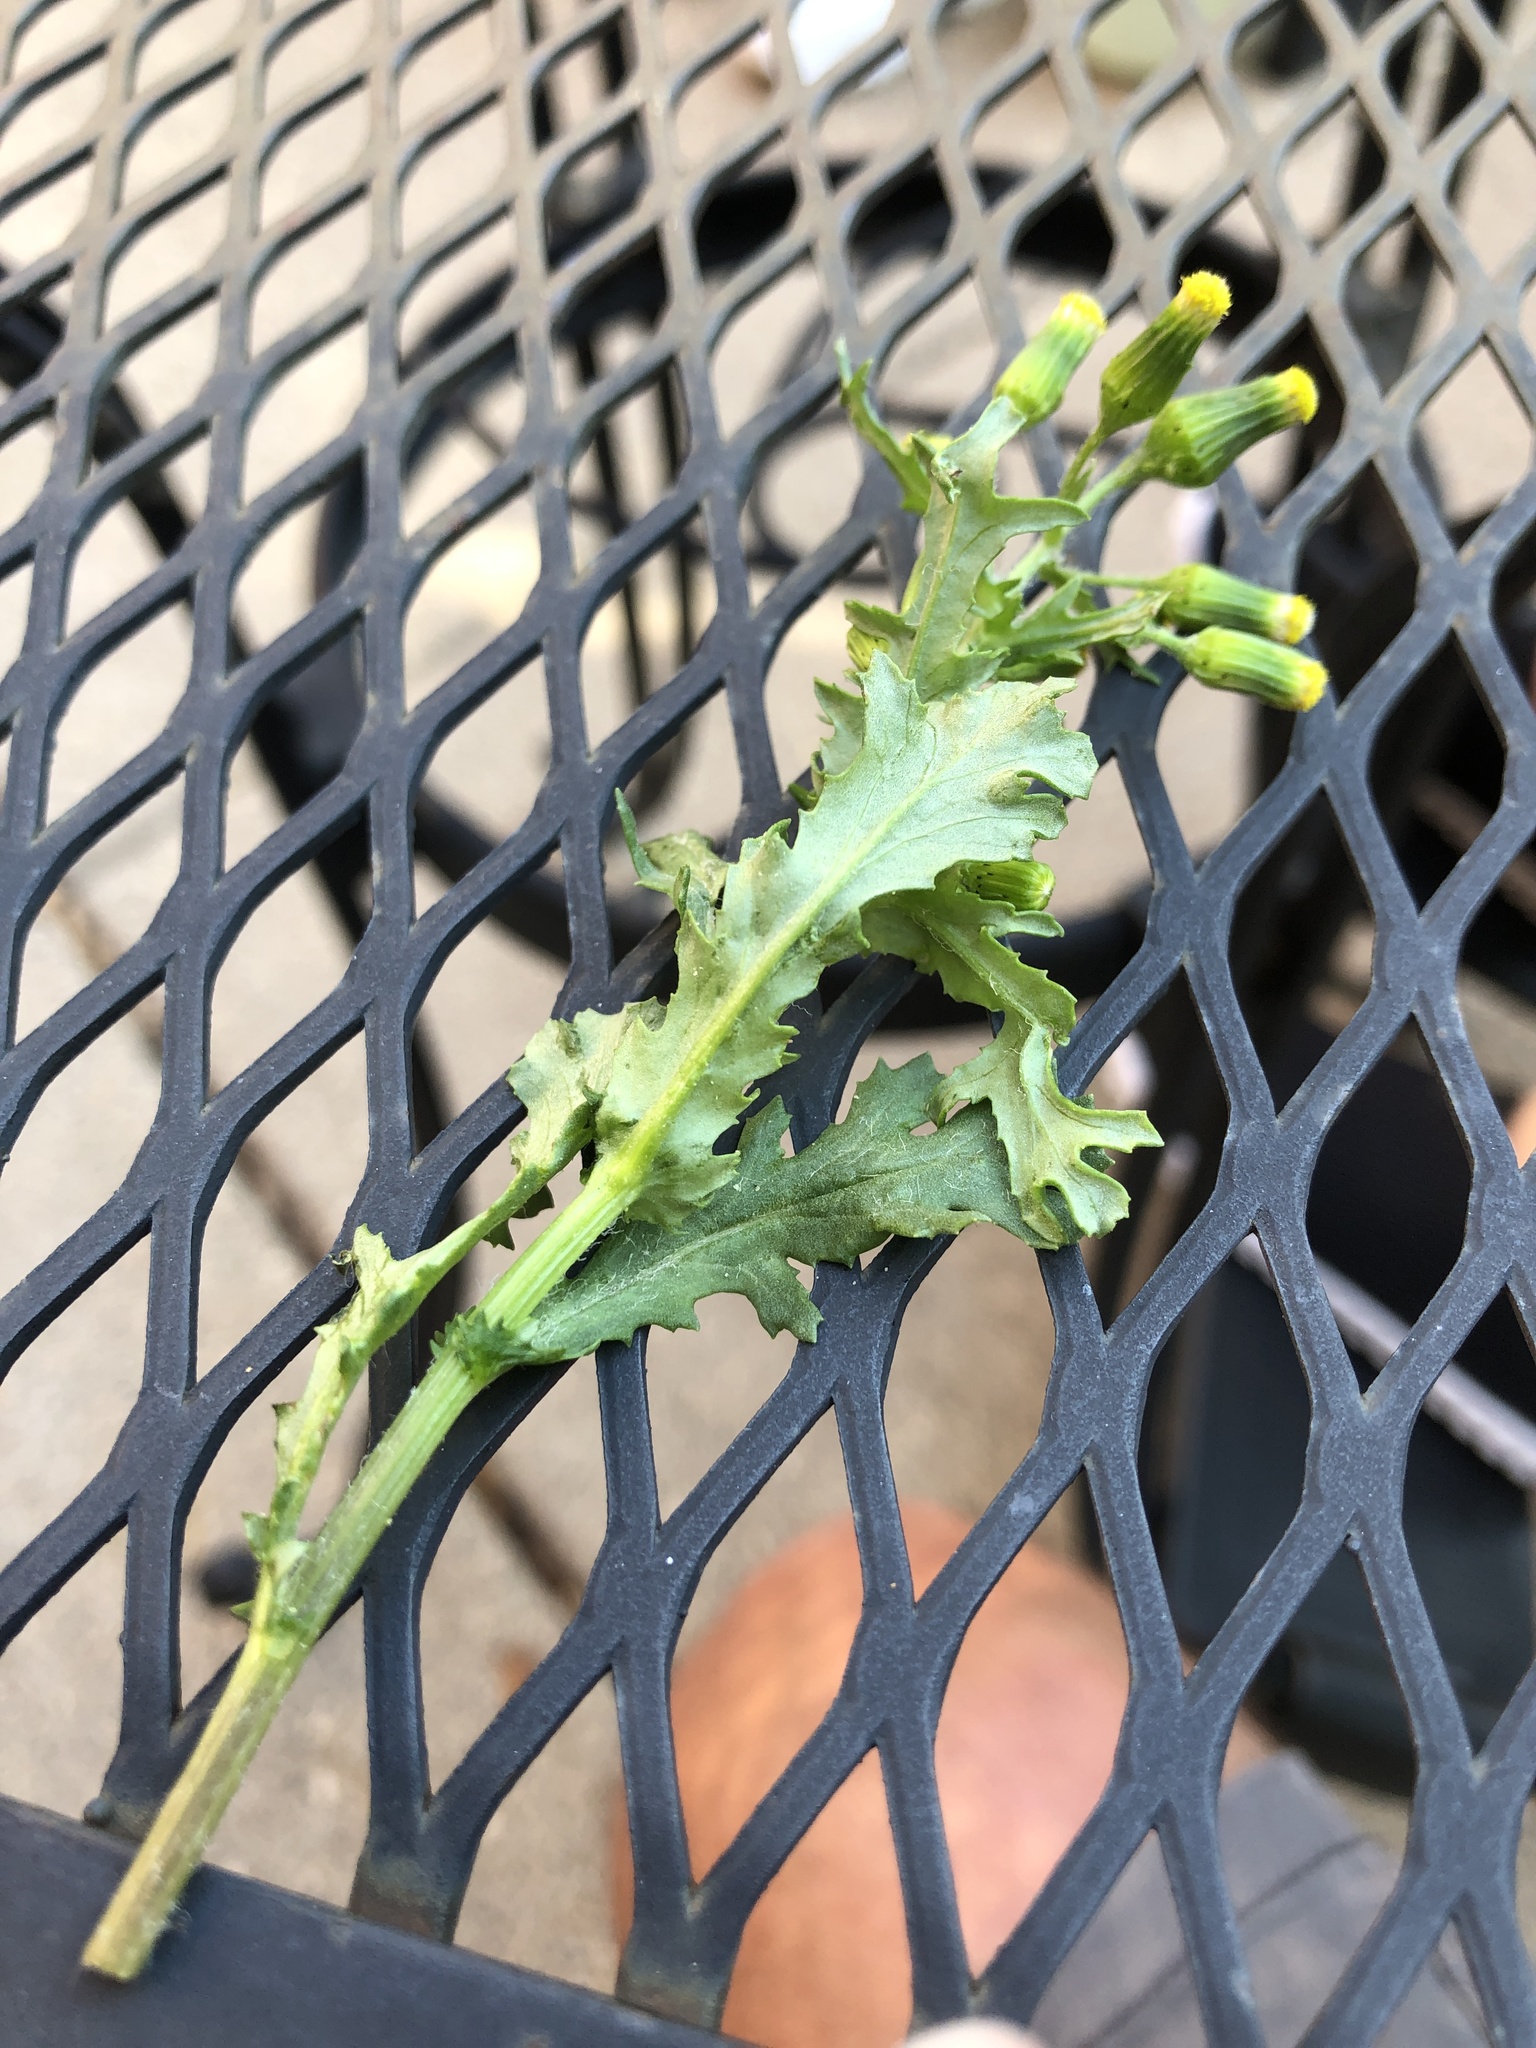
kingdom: Plantae
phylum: Tracheophyta
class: Magnoliopsida
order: Asterales
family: Asteraceae
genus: Senecio
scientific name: Senecio vulgaris
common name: Old-man-in-the-spring
